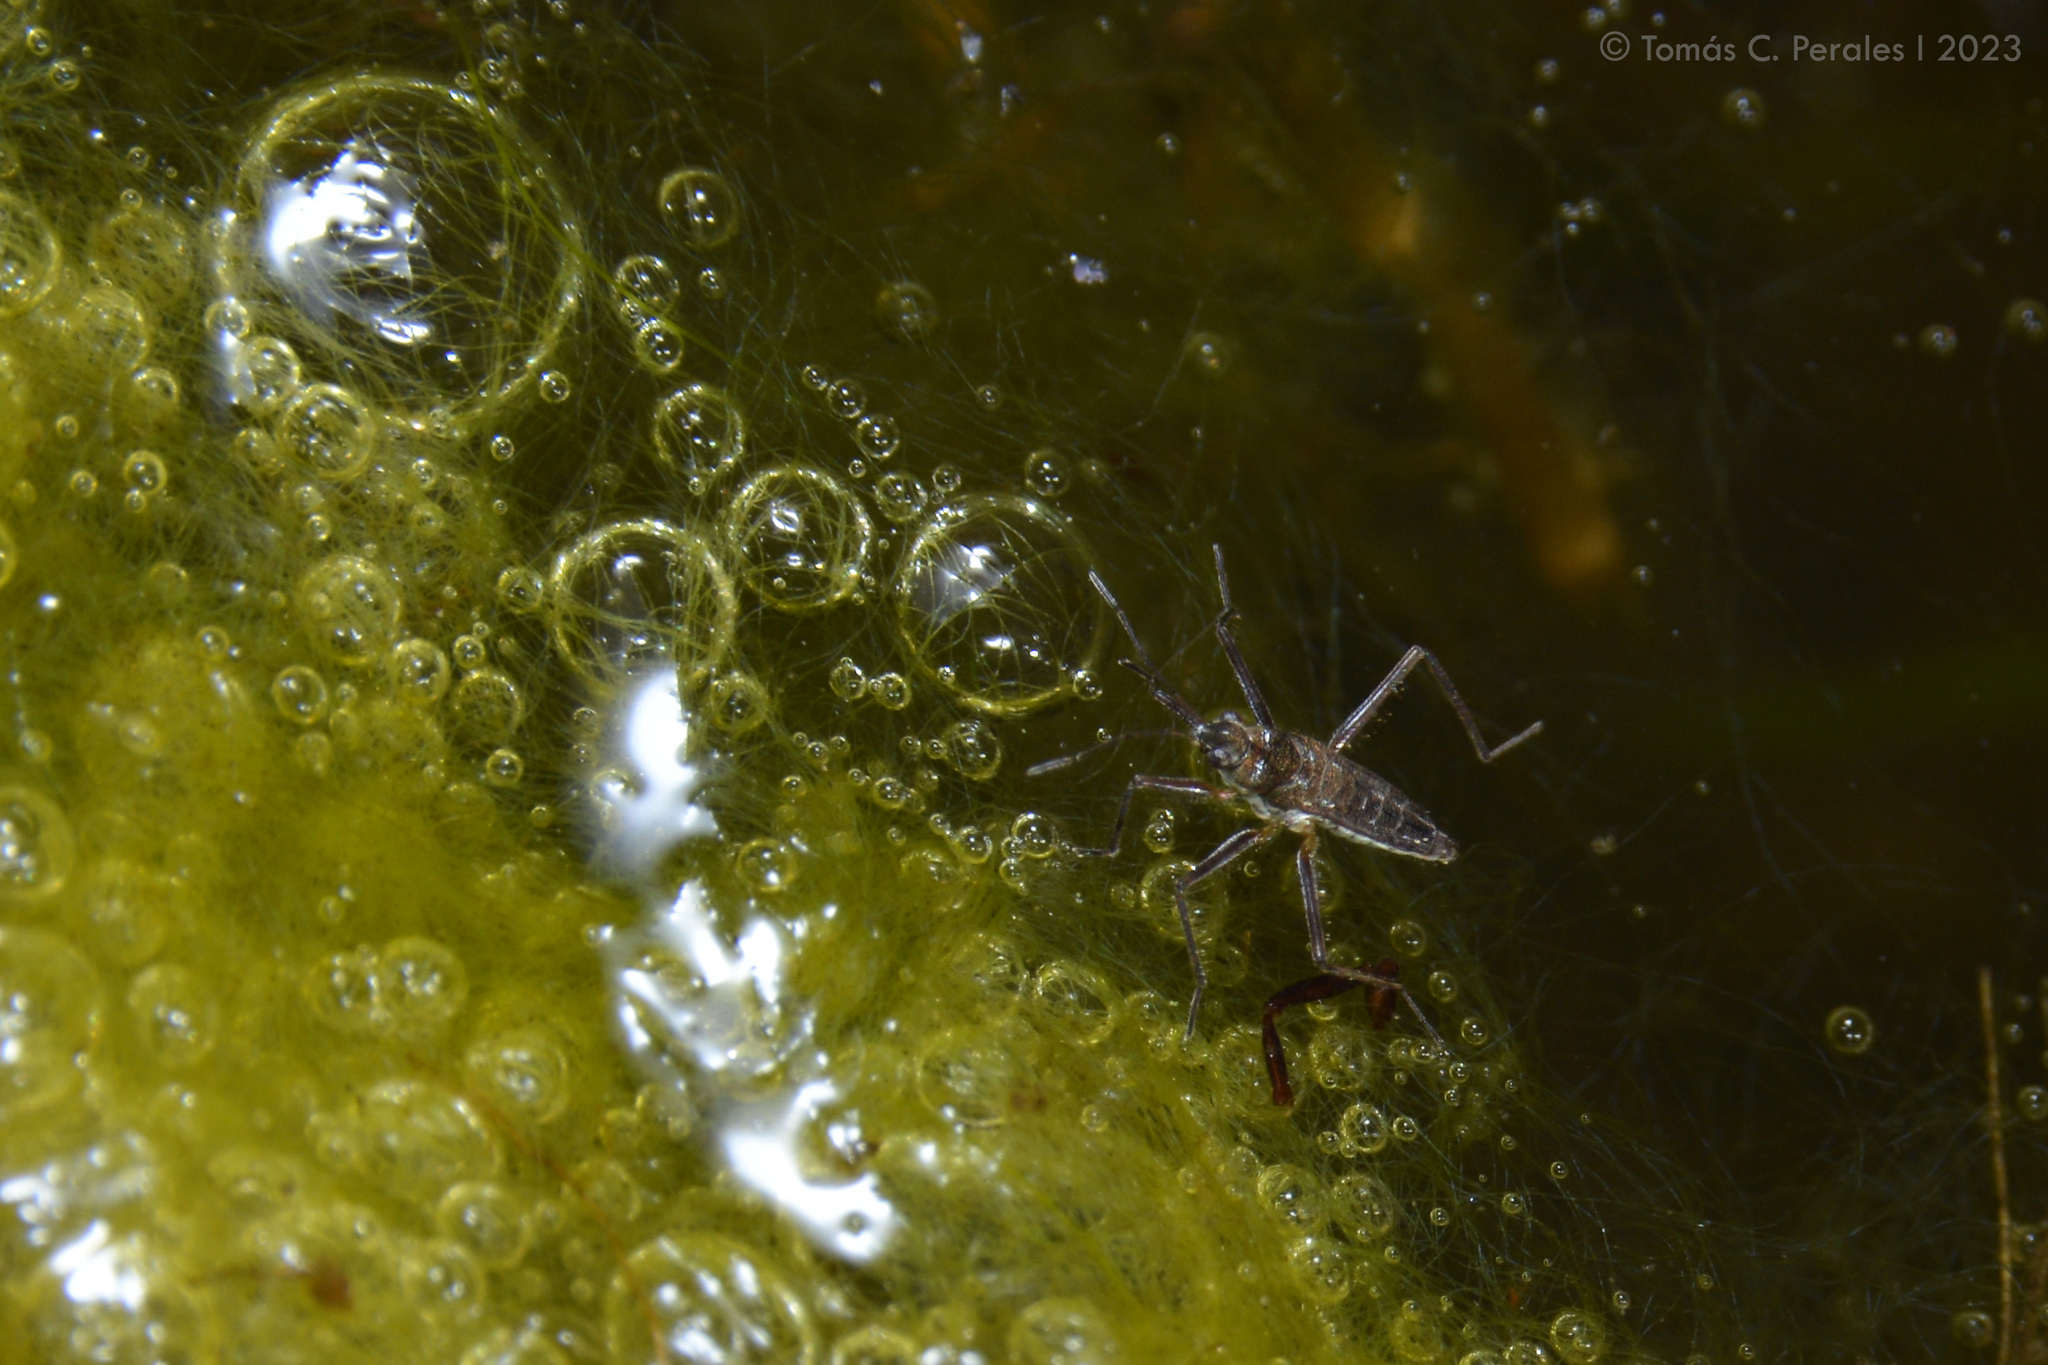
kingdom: Animalia
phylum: Arthropoda
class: Insecta
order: Hemiptera
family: Veliidae
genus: Microvelia
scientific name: Microvelia
